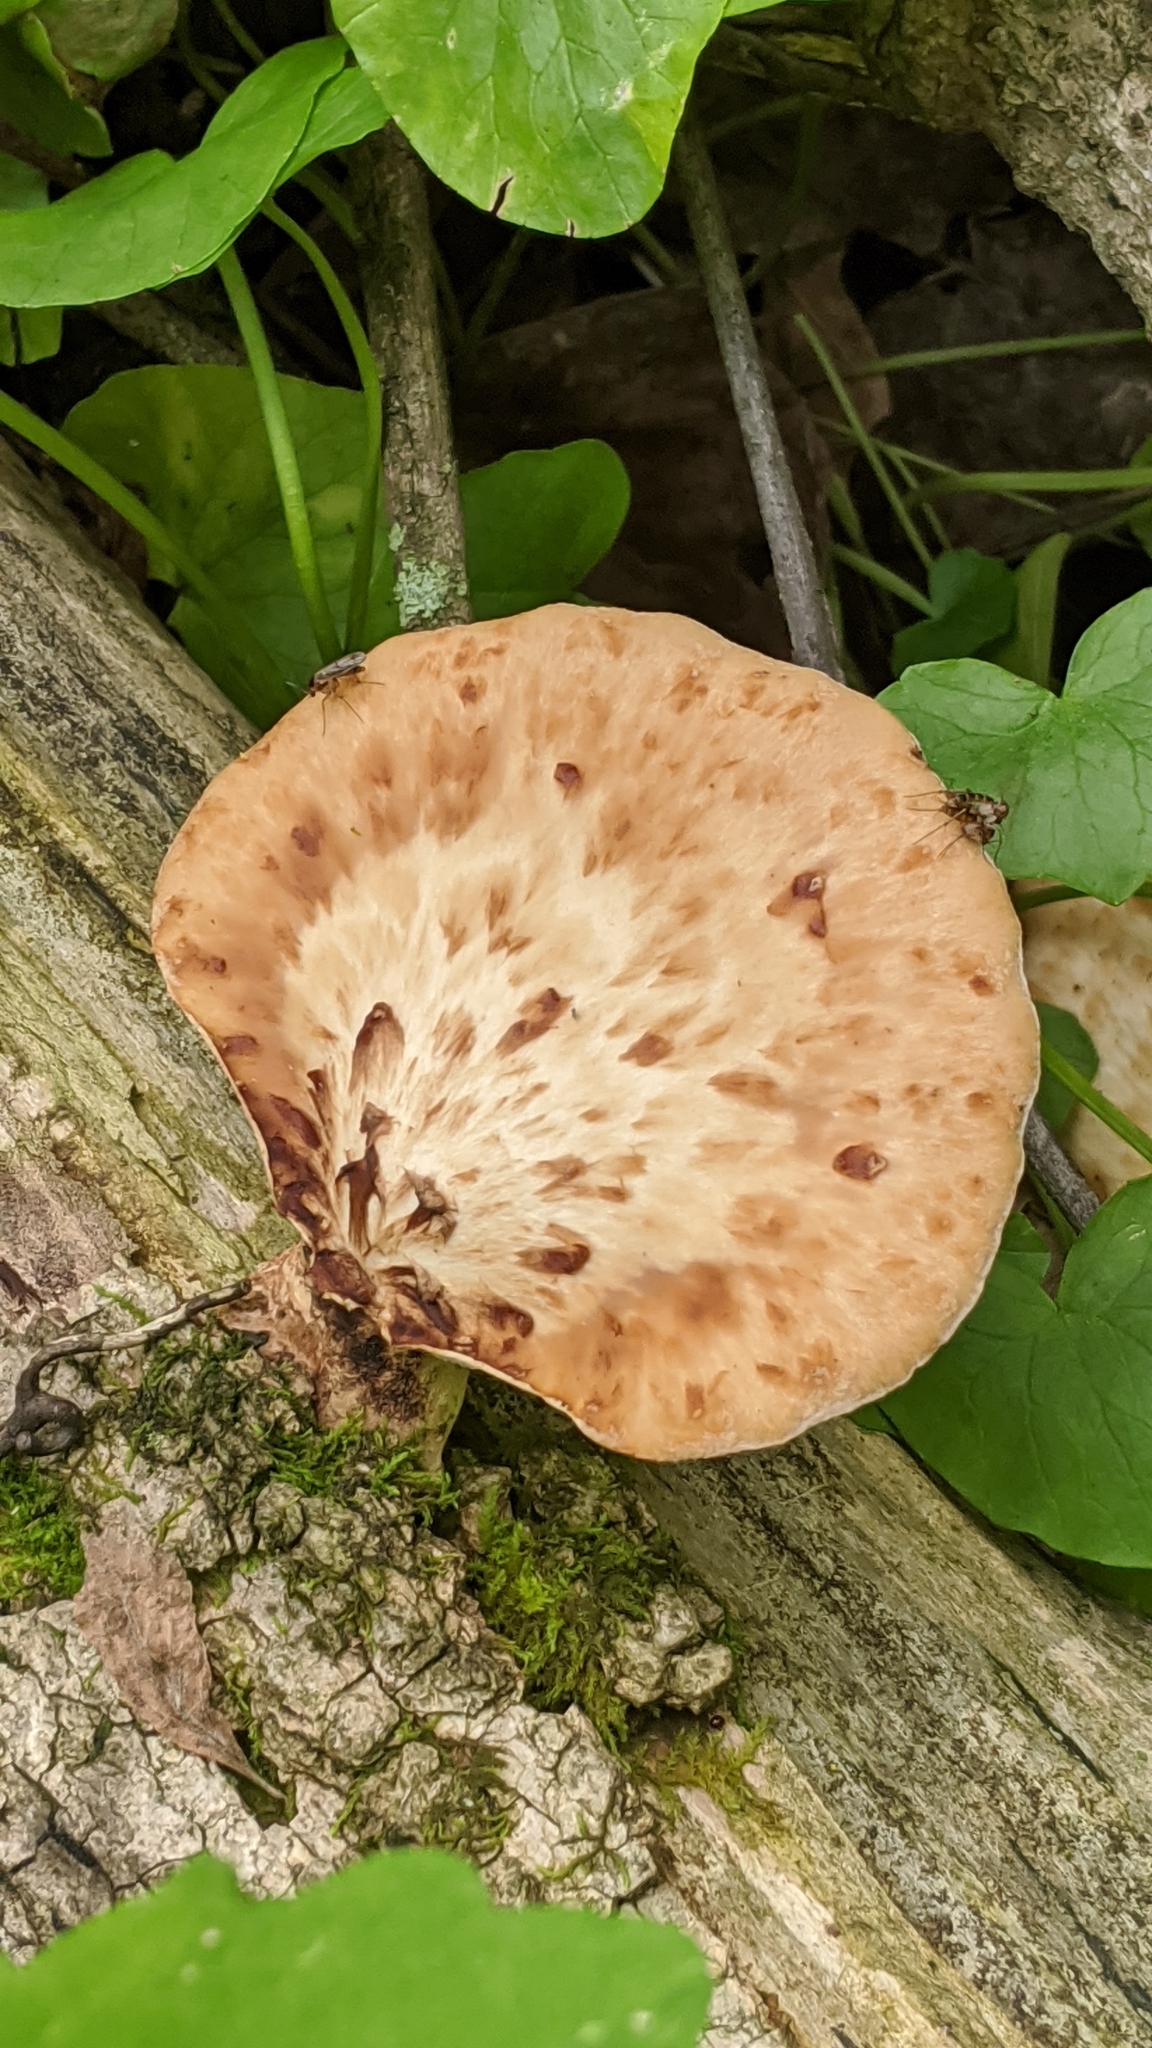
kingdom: Fungi
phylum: Basidiomycota
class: Agaricomycetes
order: Polyporales
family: Polyporaceae
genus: Cerioporus
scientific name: Cerioporus squamosus
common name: Dryad's saddle
